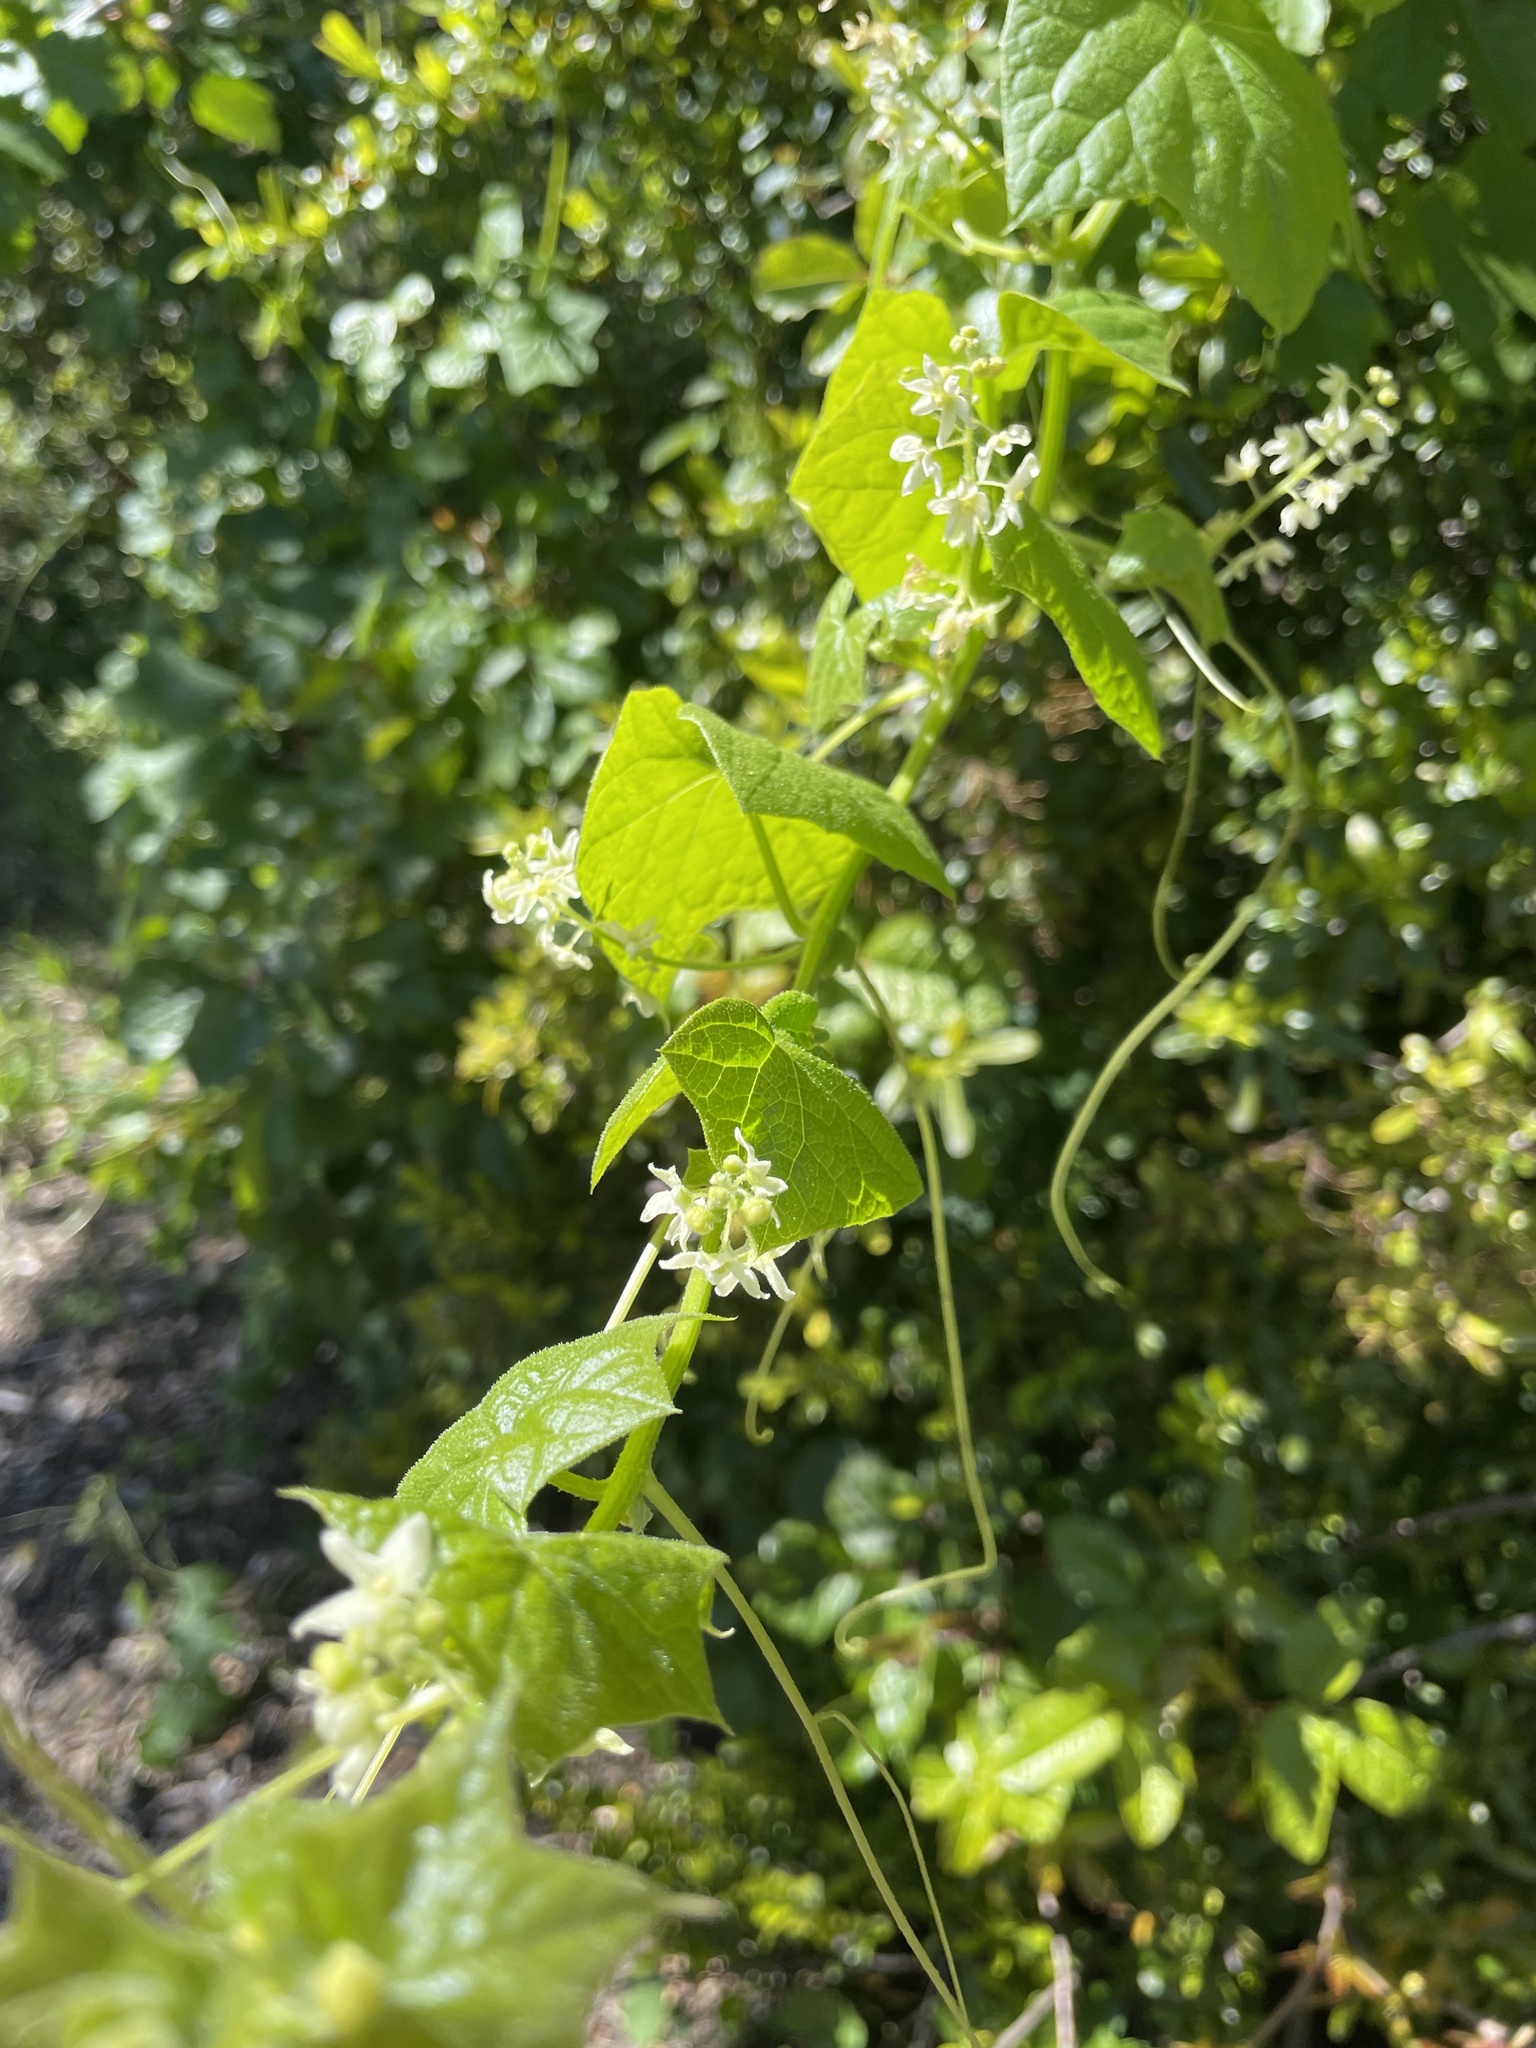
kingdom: Plantae
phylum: Tracheophyta
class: Magnoliopsida
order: Cucurbitales
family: Cucurbitaceae
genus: Marah
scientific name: Marah fabacea
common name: California manroot
